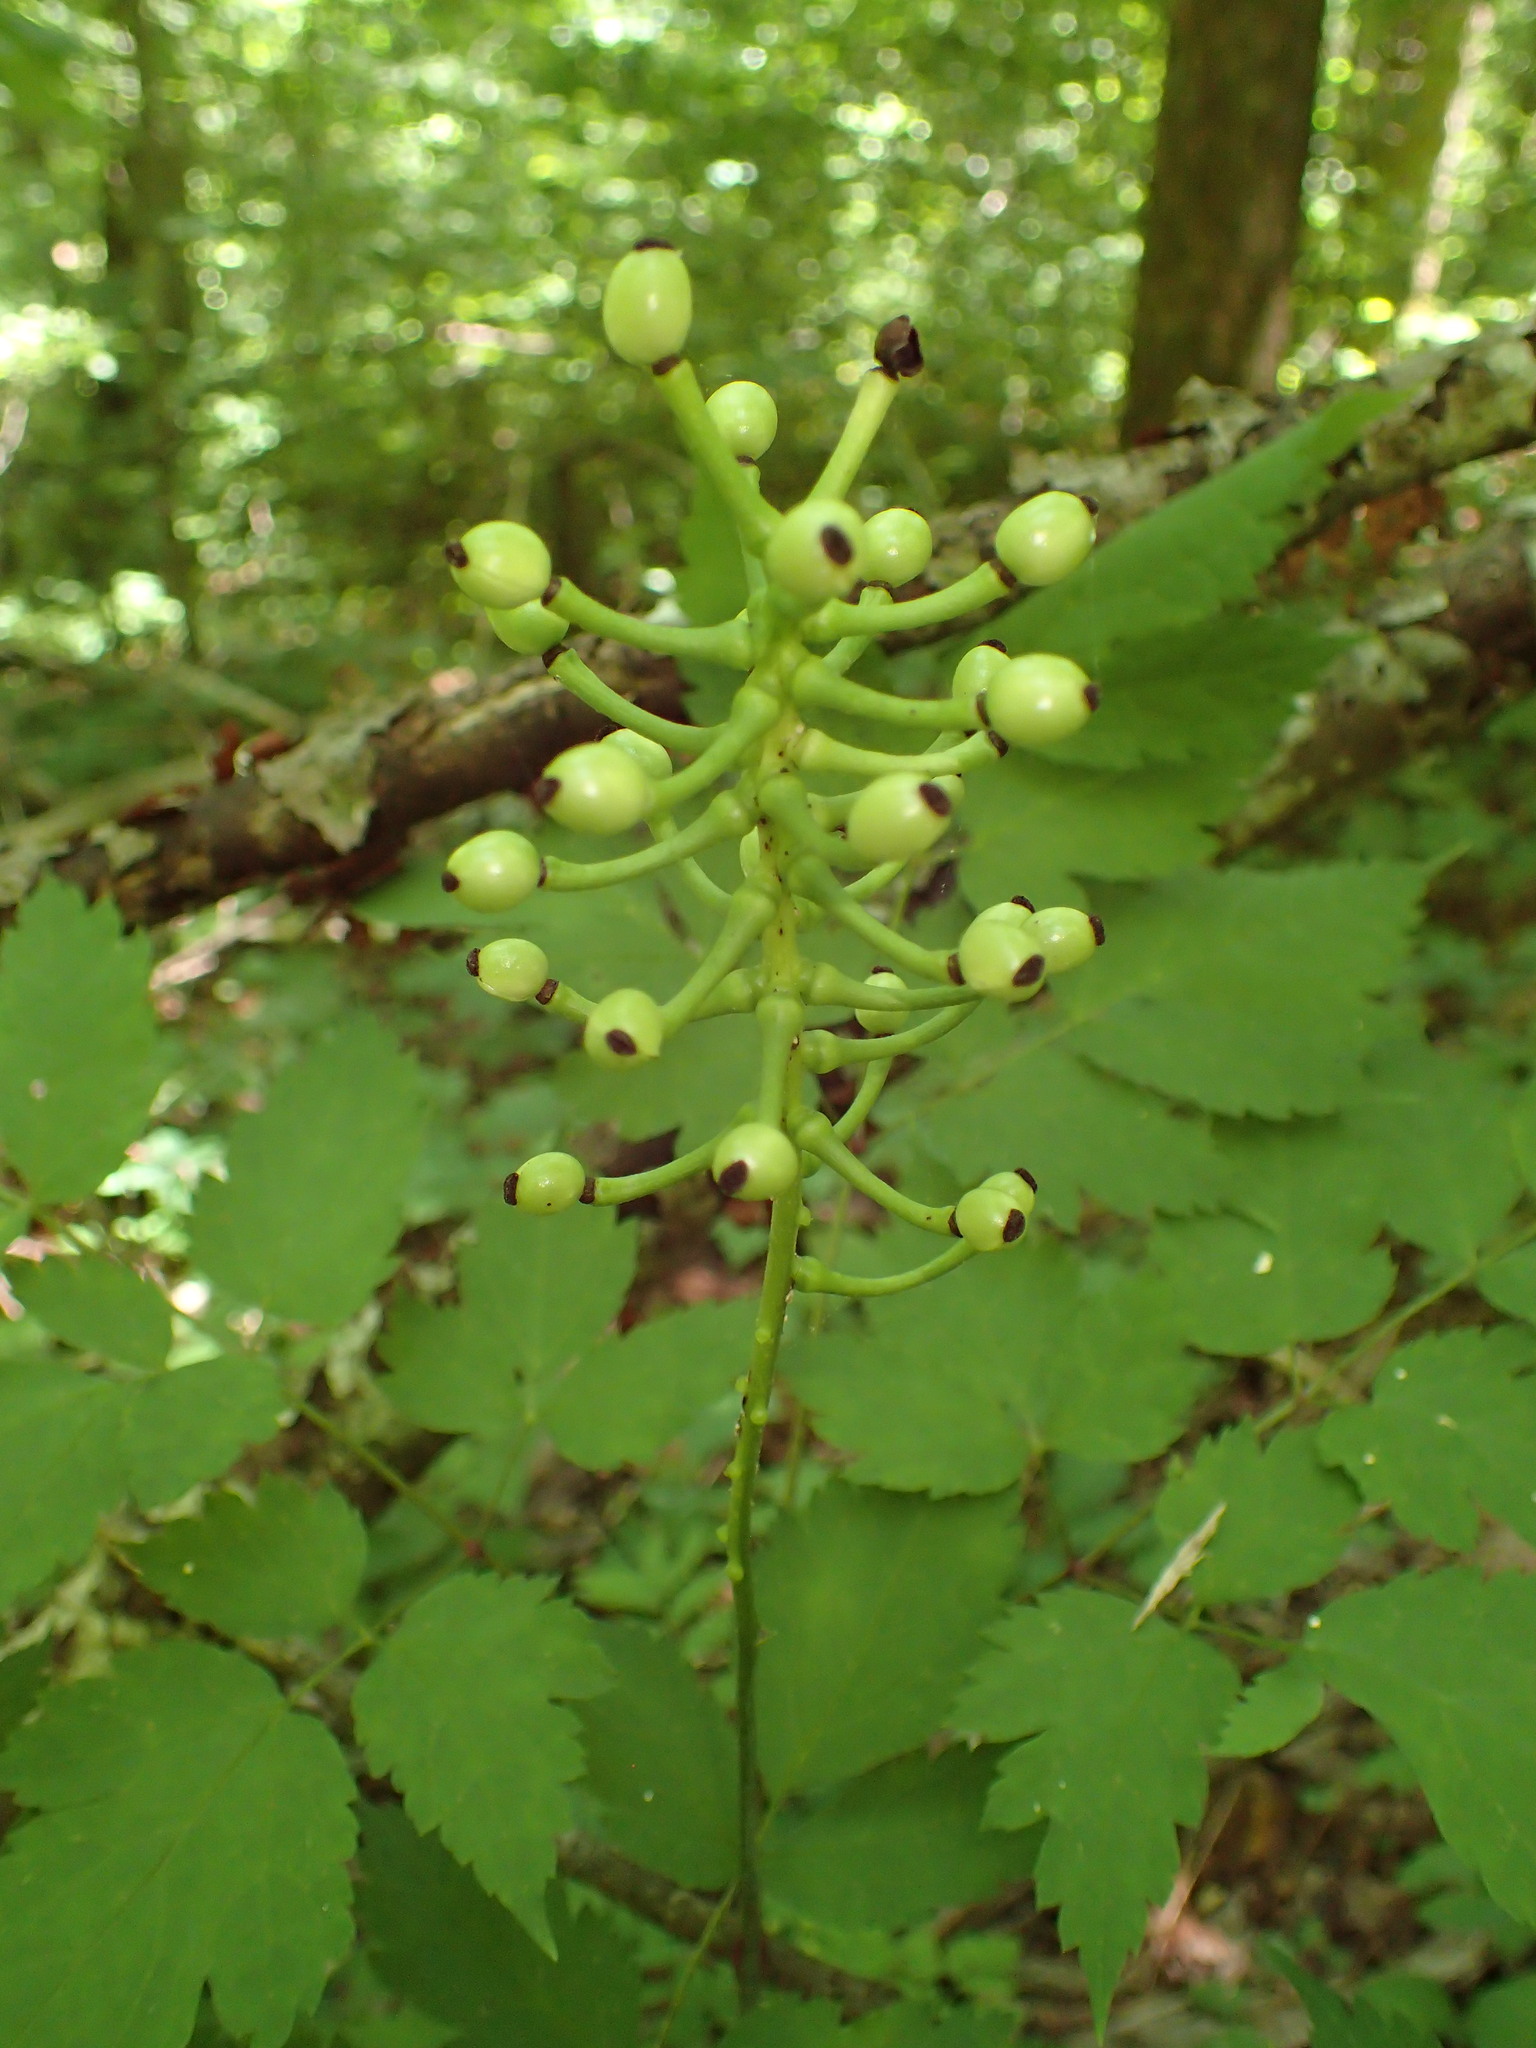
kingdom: Plantae
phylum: Tracheophyta
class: Magnoliopsida
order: Ranunculales
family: Ranunculaceae
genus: Actaea
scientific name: Actaea pachypoda
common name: Doll's-eyes
